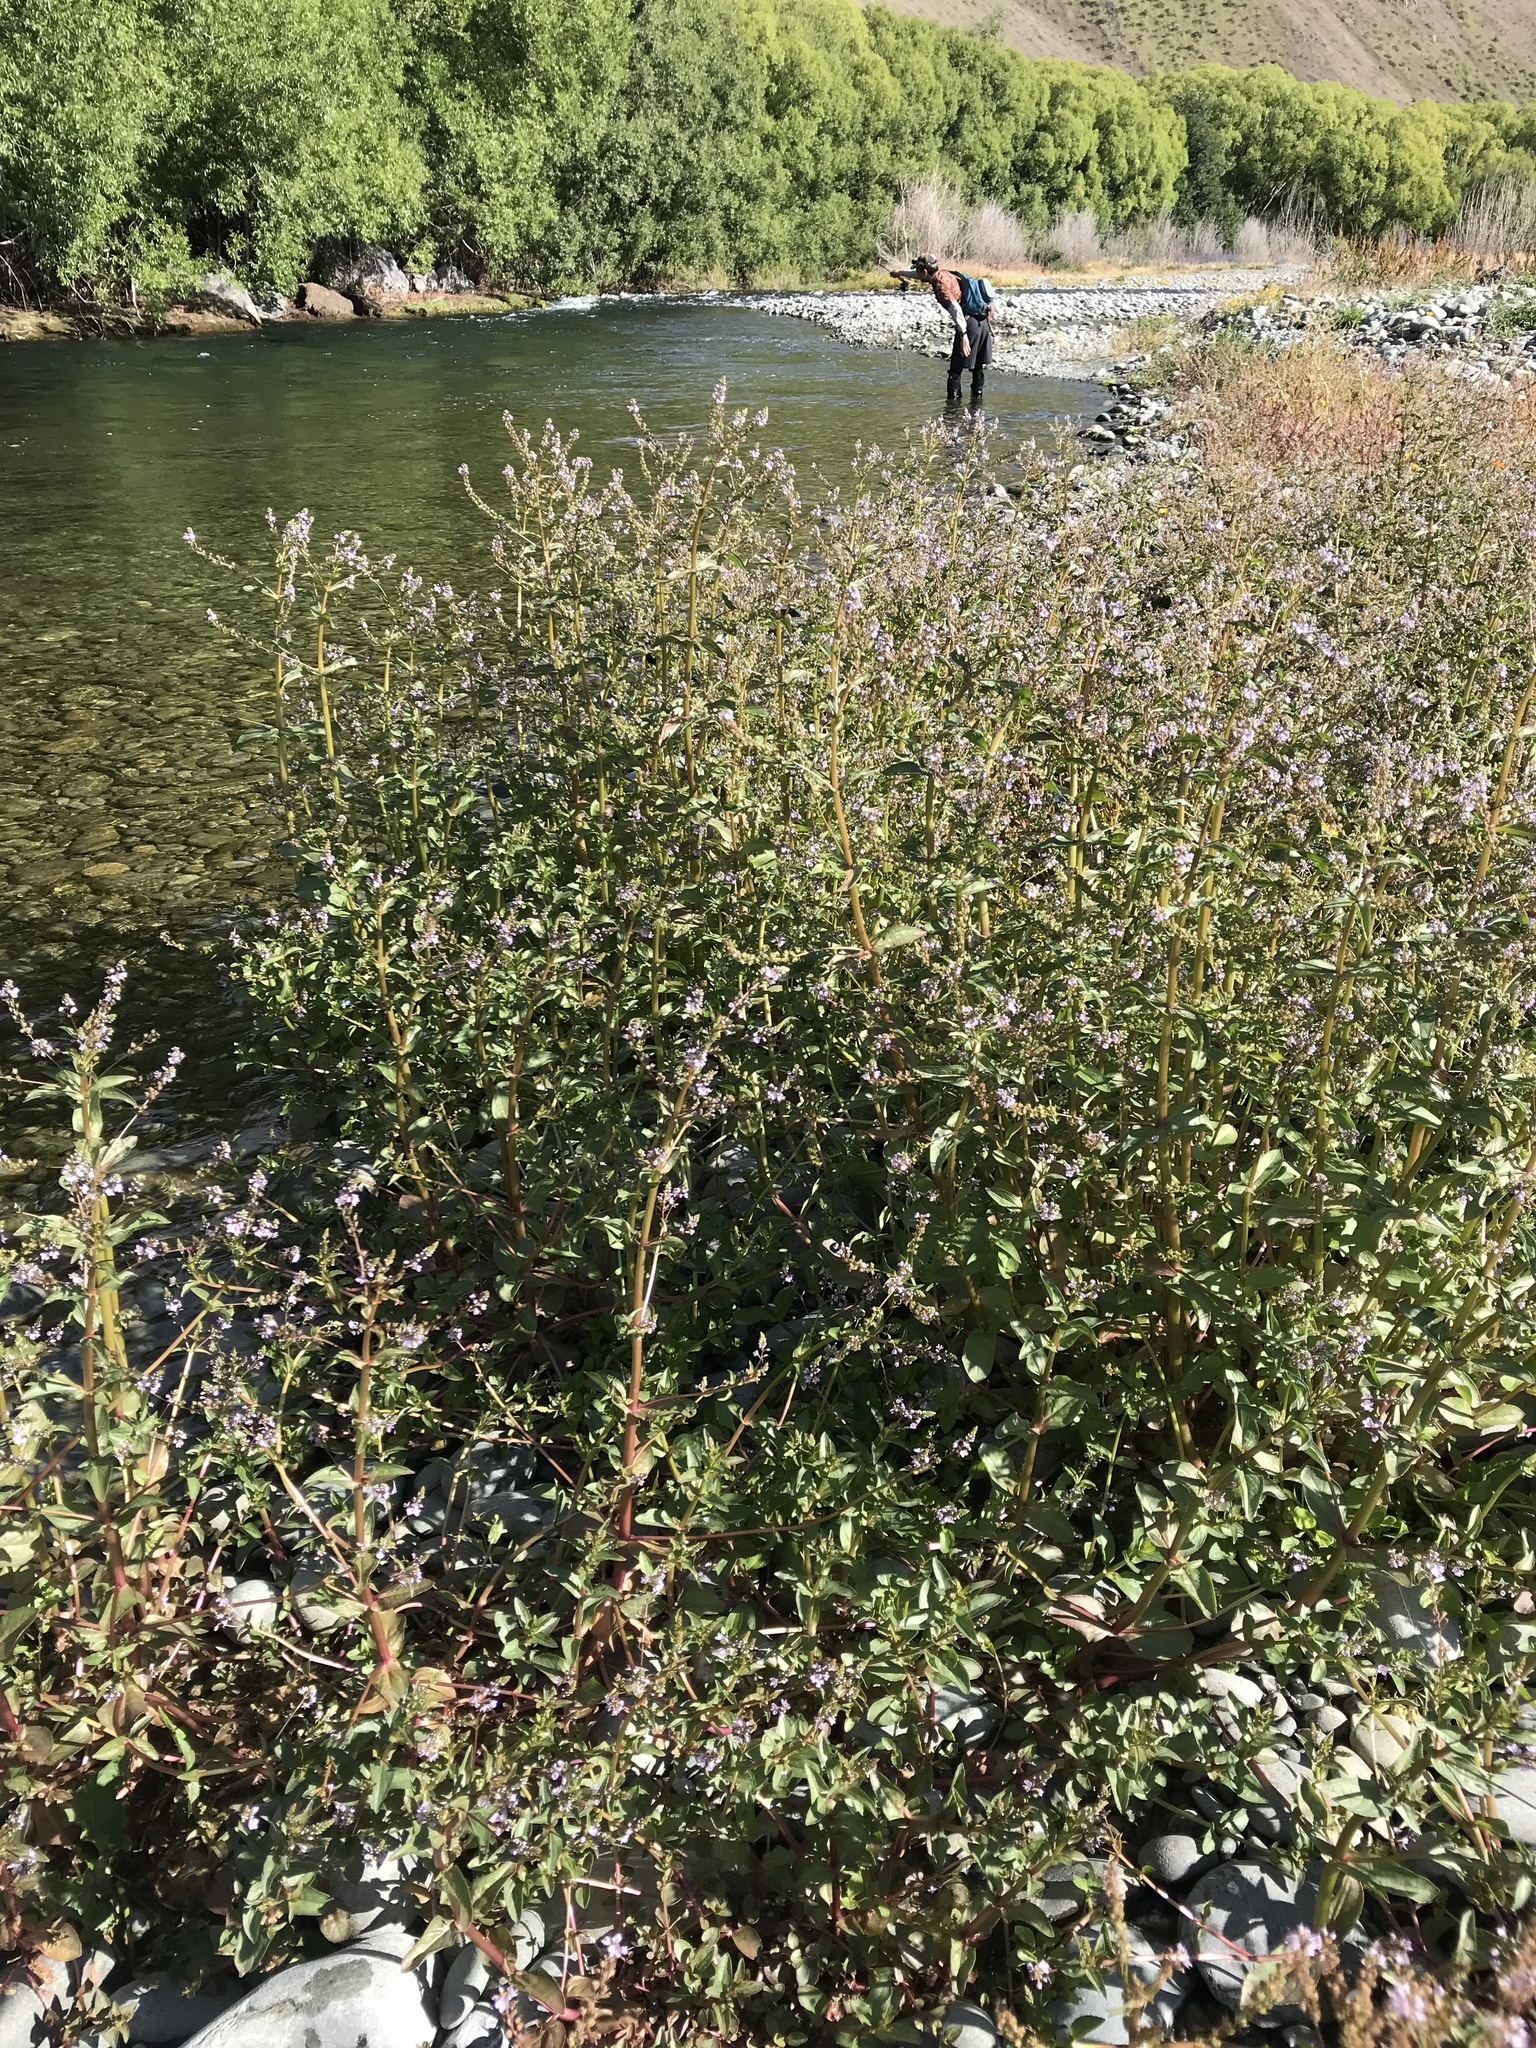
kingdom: Plantae
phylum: Tracheophyta
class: Magnoliopsida
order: Lamiales
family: Plantaginaceae
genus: Veronica
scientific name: Veronica anagallis-aquatica
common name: Water speedwell
